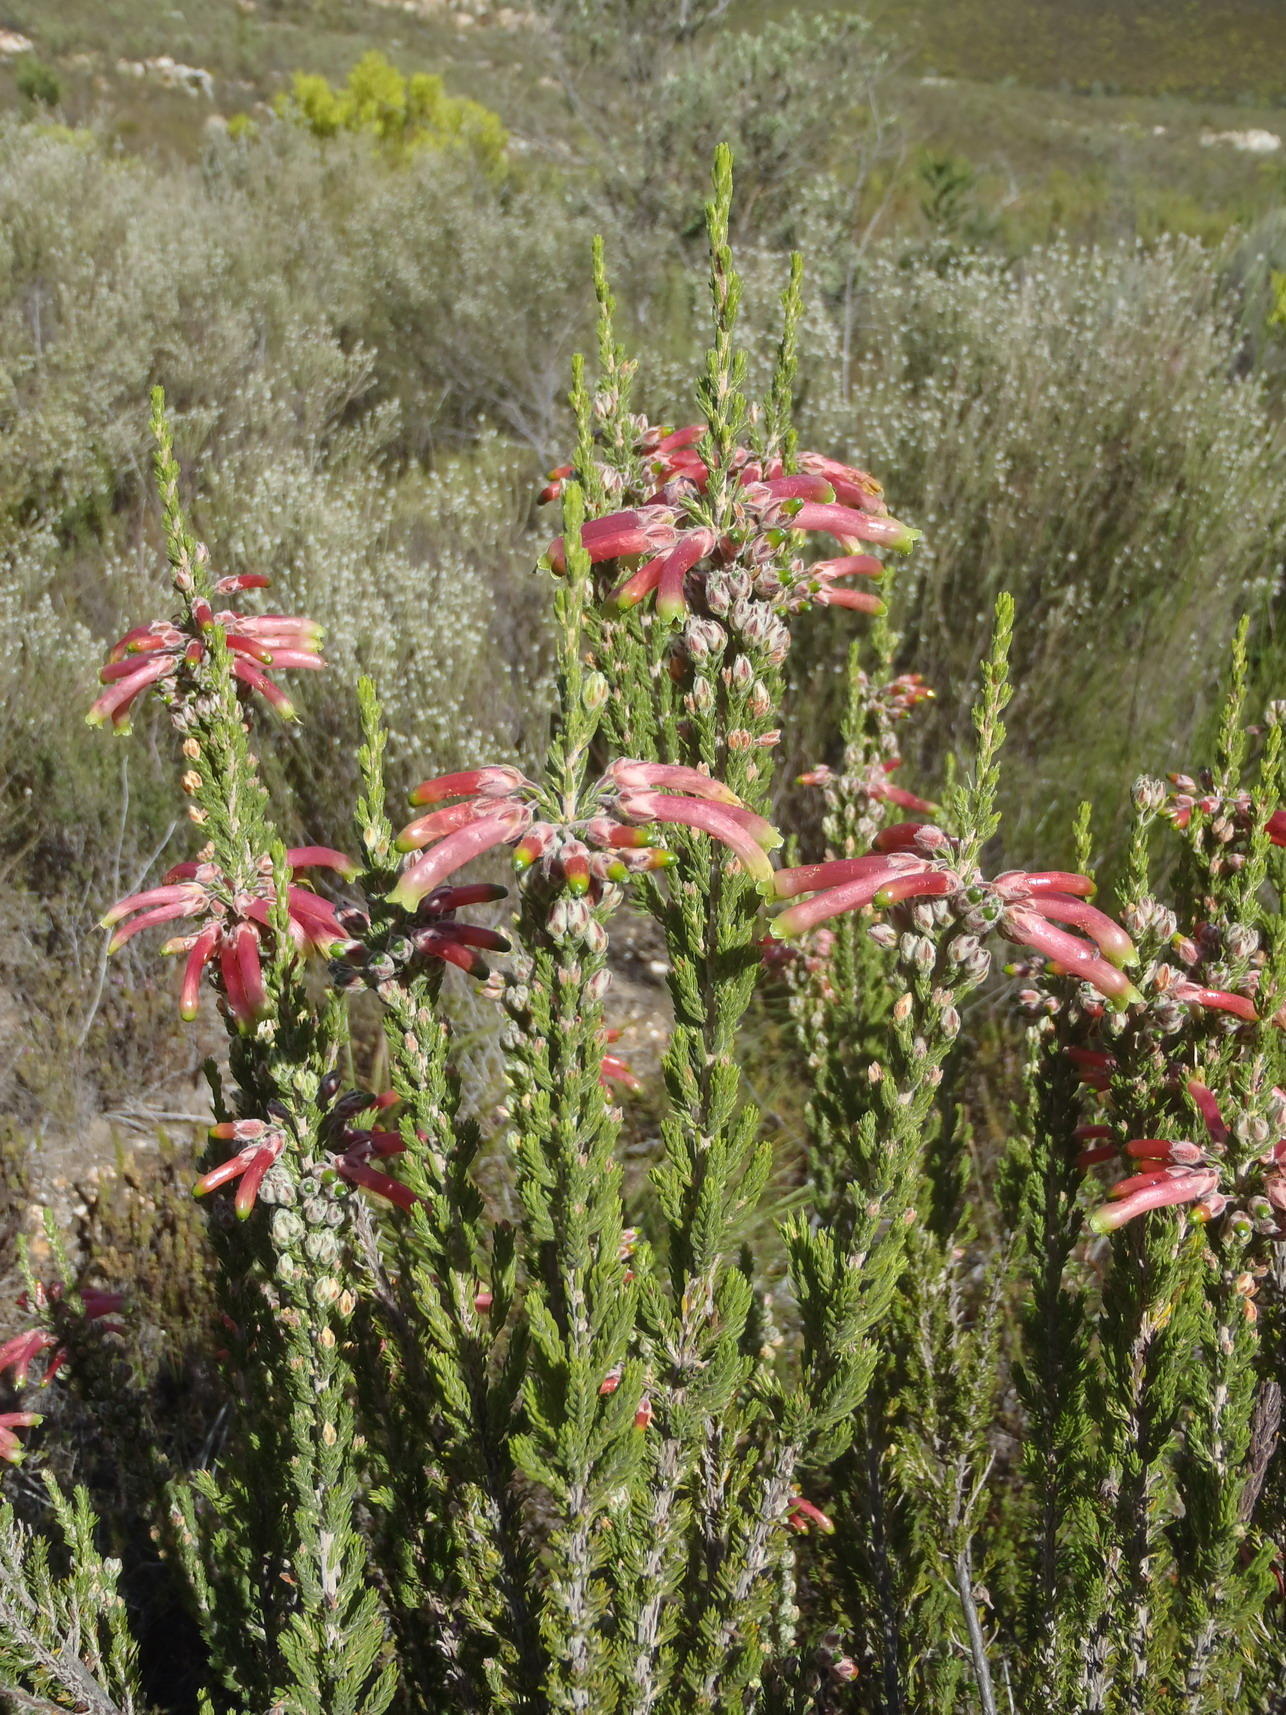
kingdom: Plantae
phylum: Tracheophyta
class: Magnoliopsida
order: Ericales
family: Ericaceae
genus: Erica
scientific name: Erica discolor
